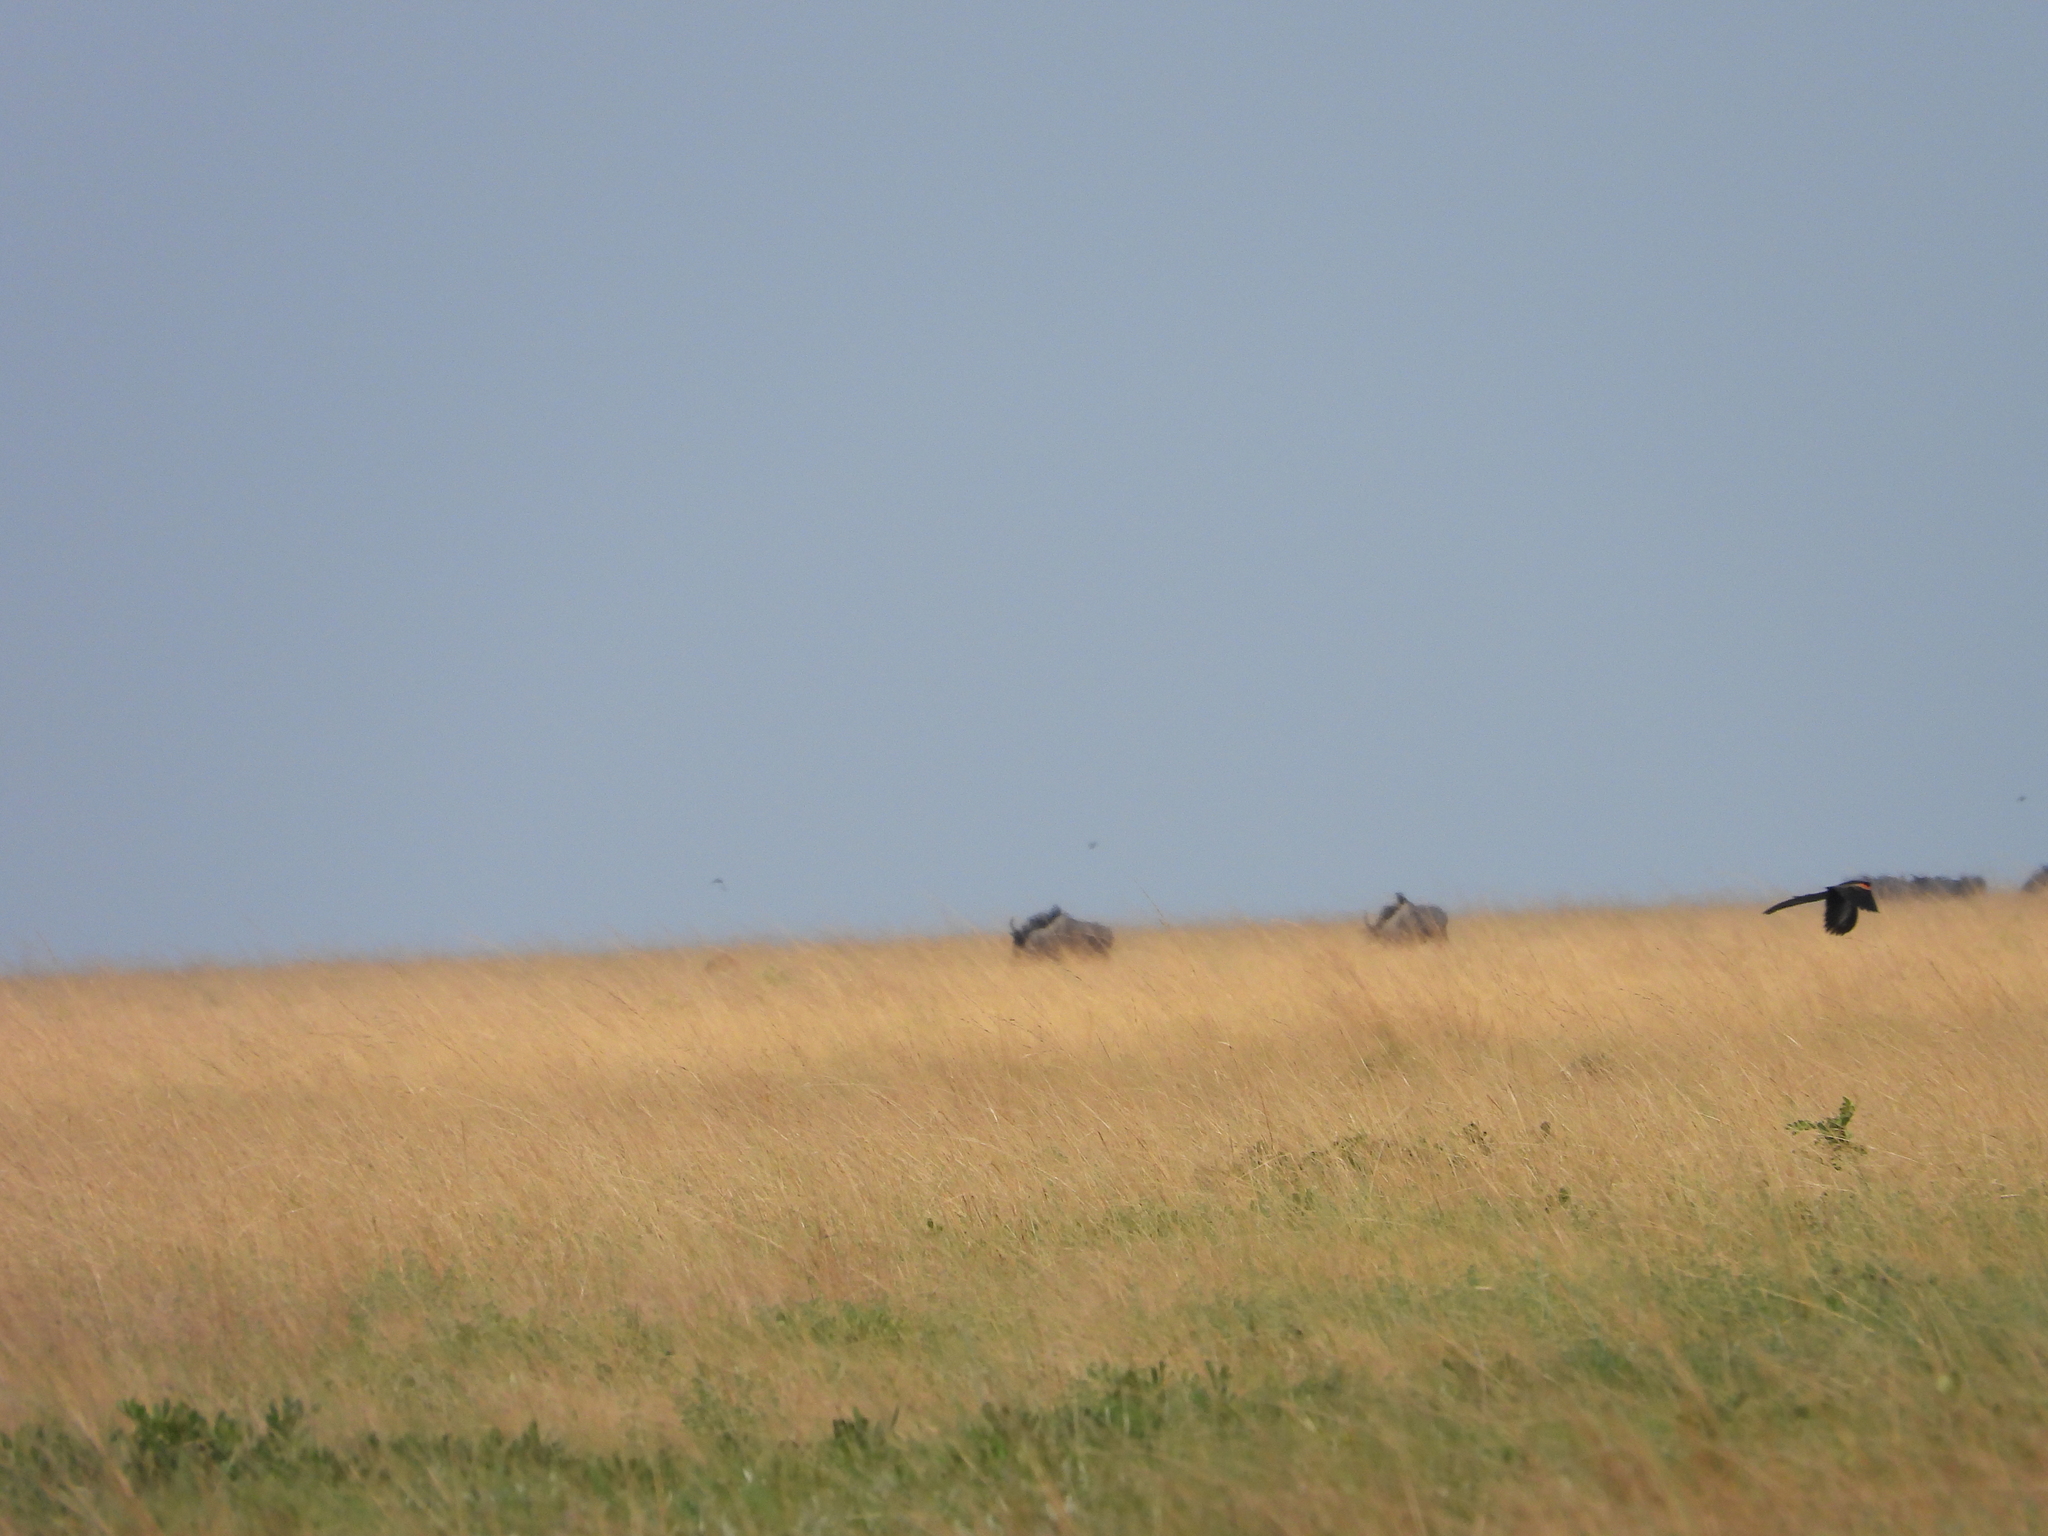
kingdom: Animalia
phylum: Chordata
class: Aves
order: Passeriformes
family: Ploceidae
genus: Euplectes
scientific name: Euplectes progne
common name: Long-tailed widowbird
